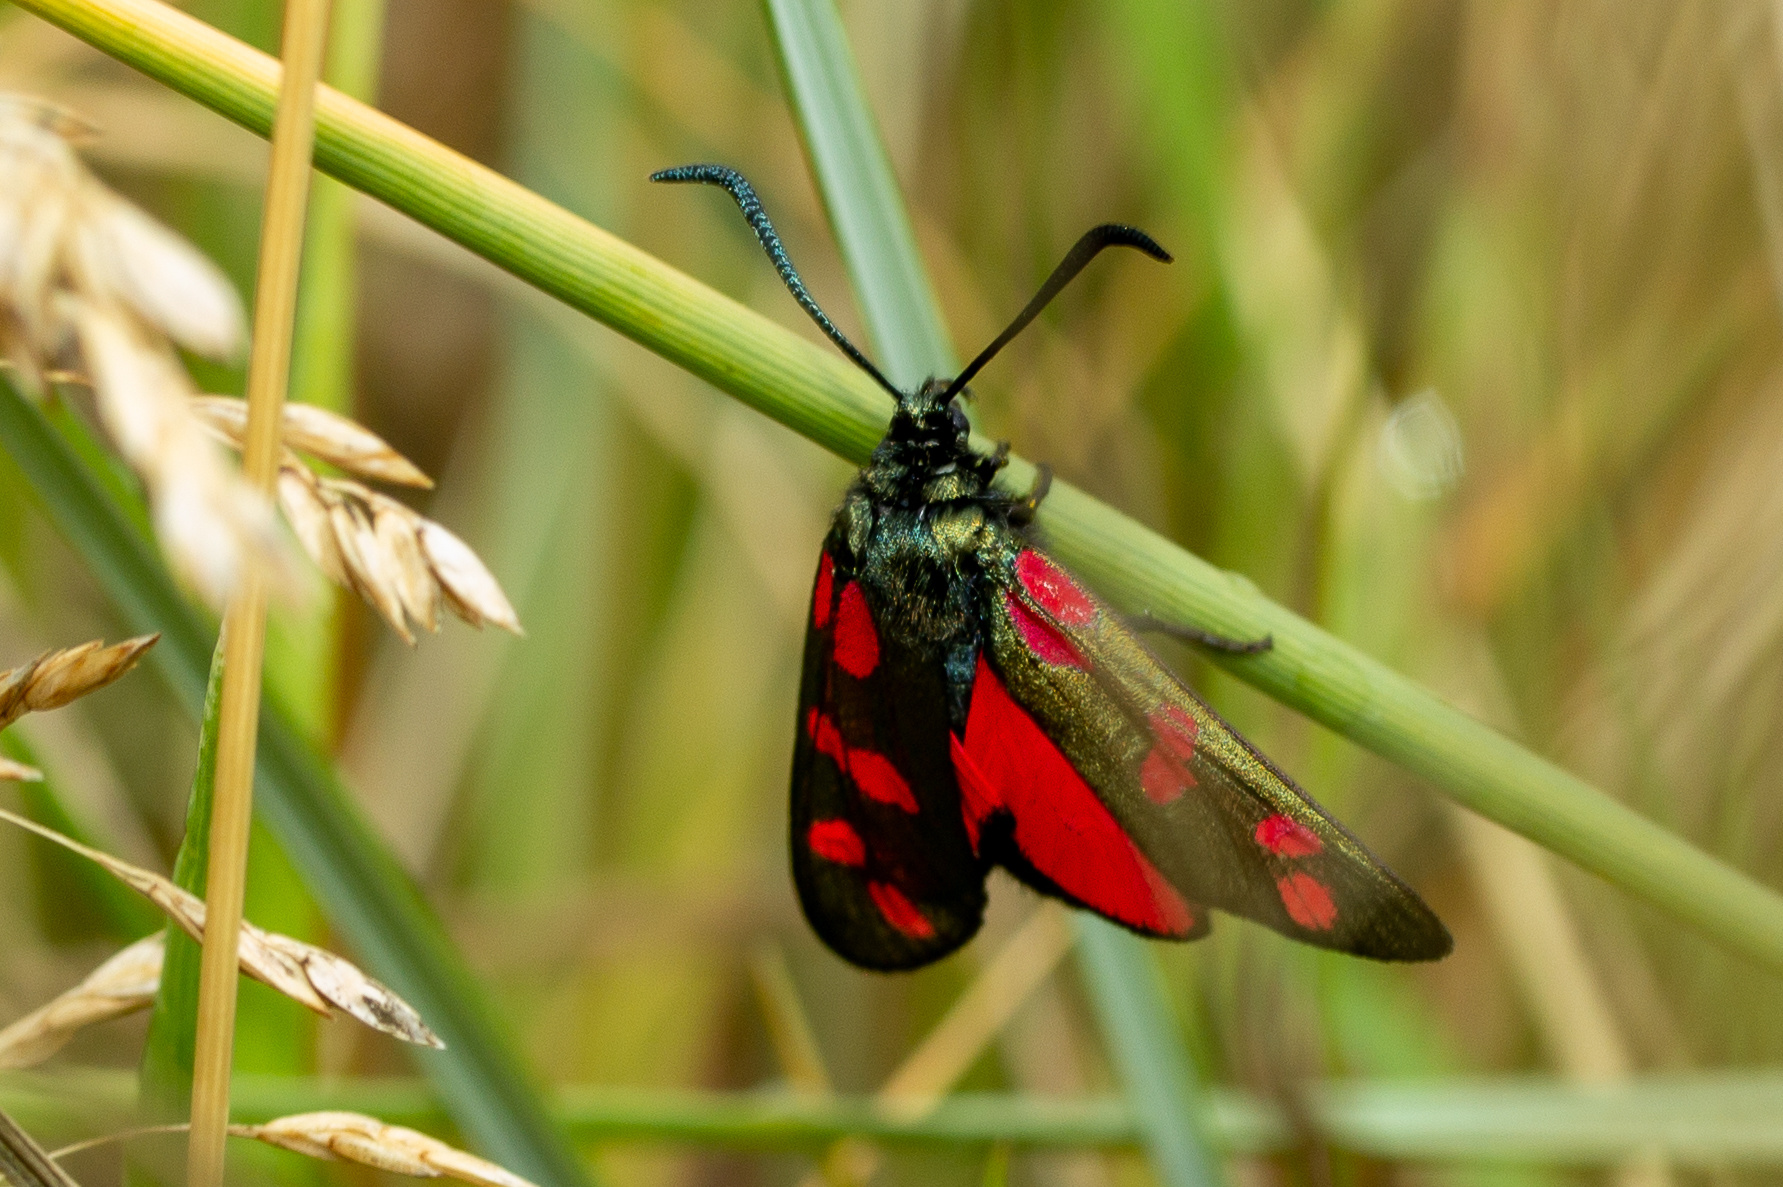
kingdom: Animalia
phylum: Arthropoda
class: Insecta
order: Lepidoptera
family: Zygaenidae
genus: Zygaena
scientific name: Zygaena filipendulae
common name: Six-spot burnet
